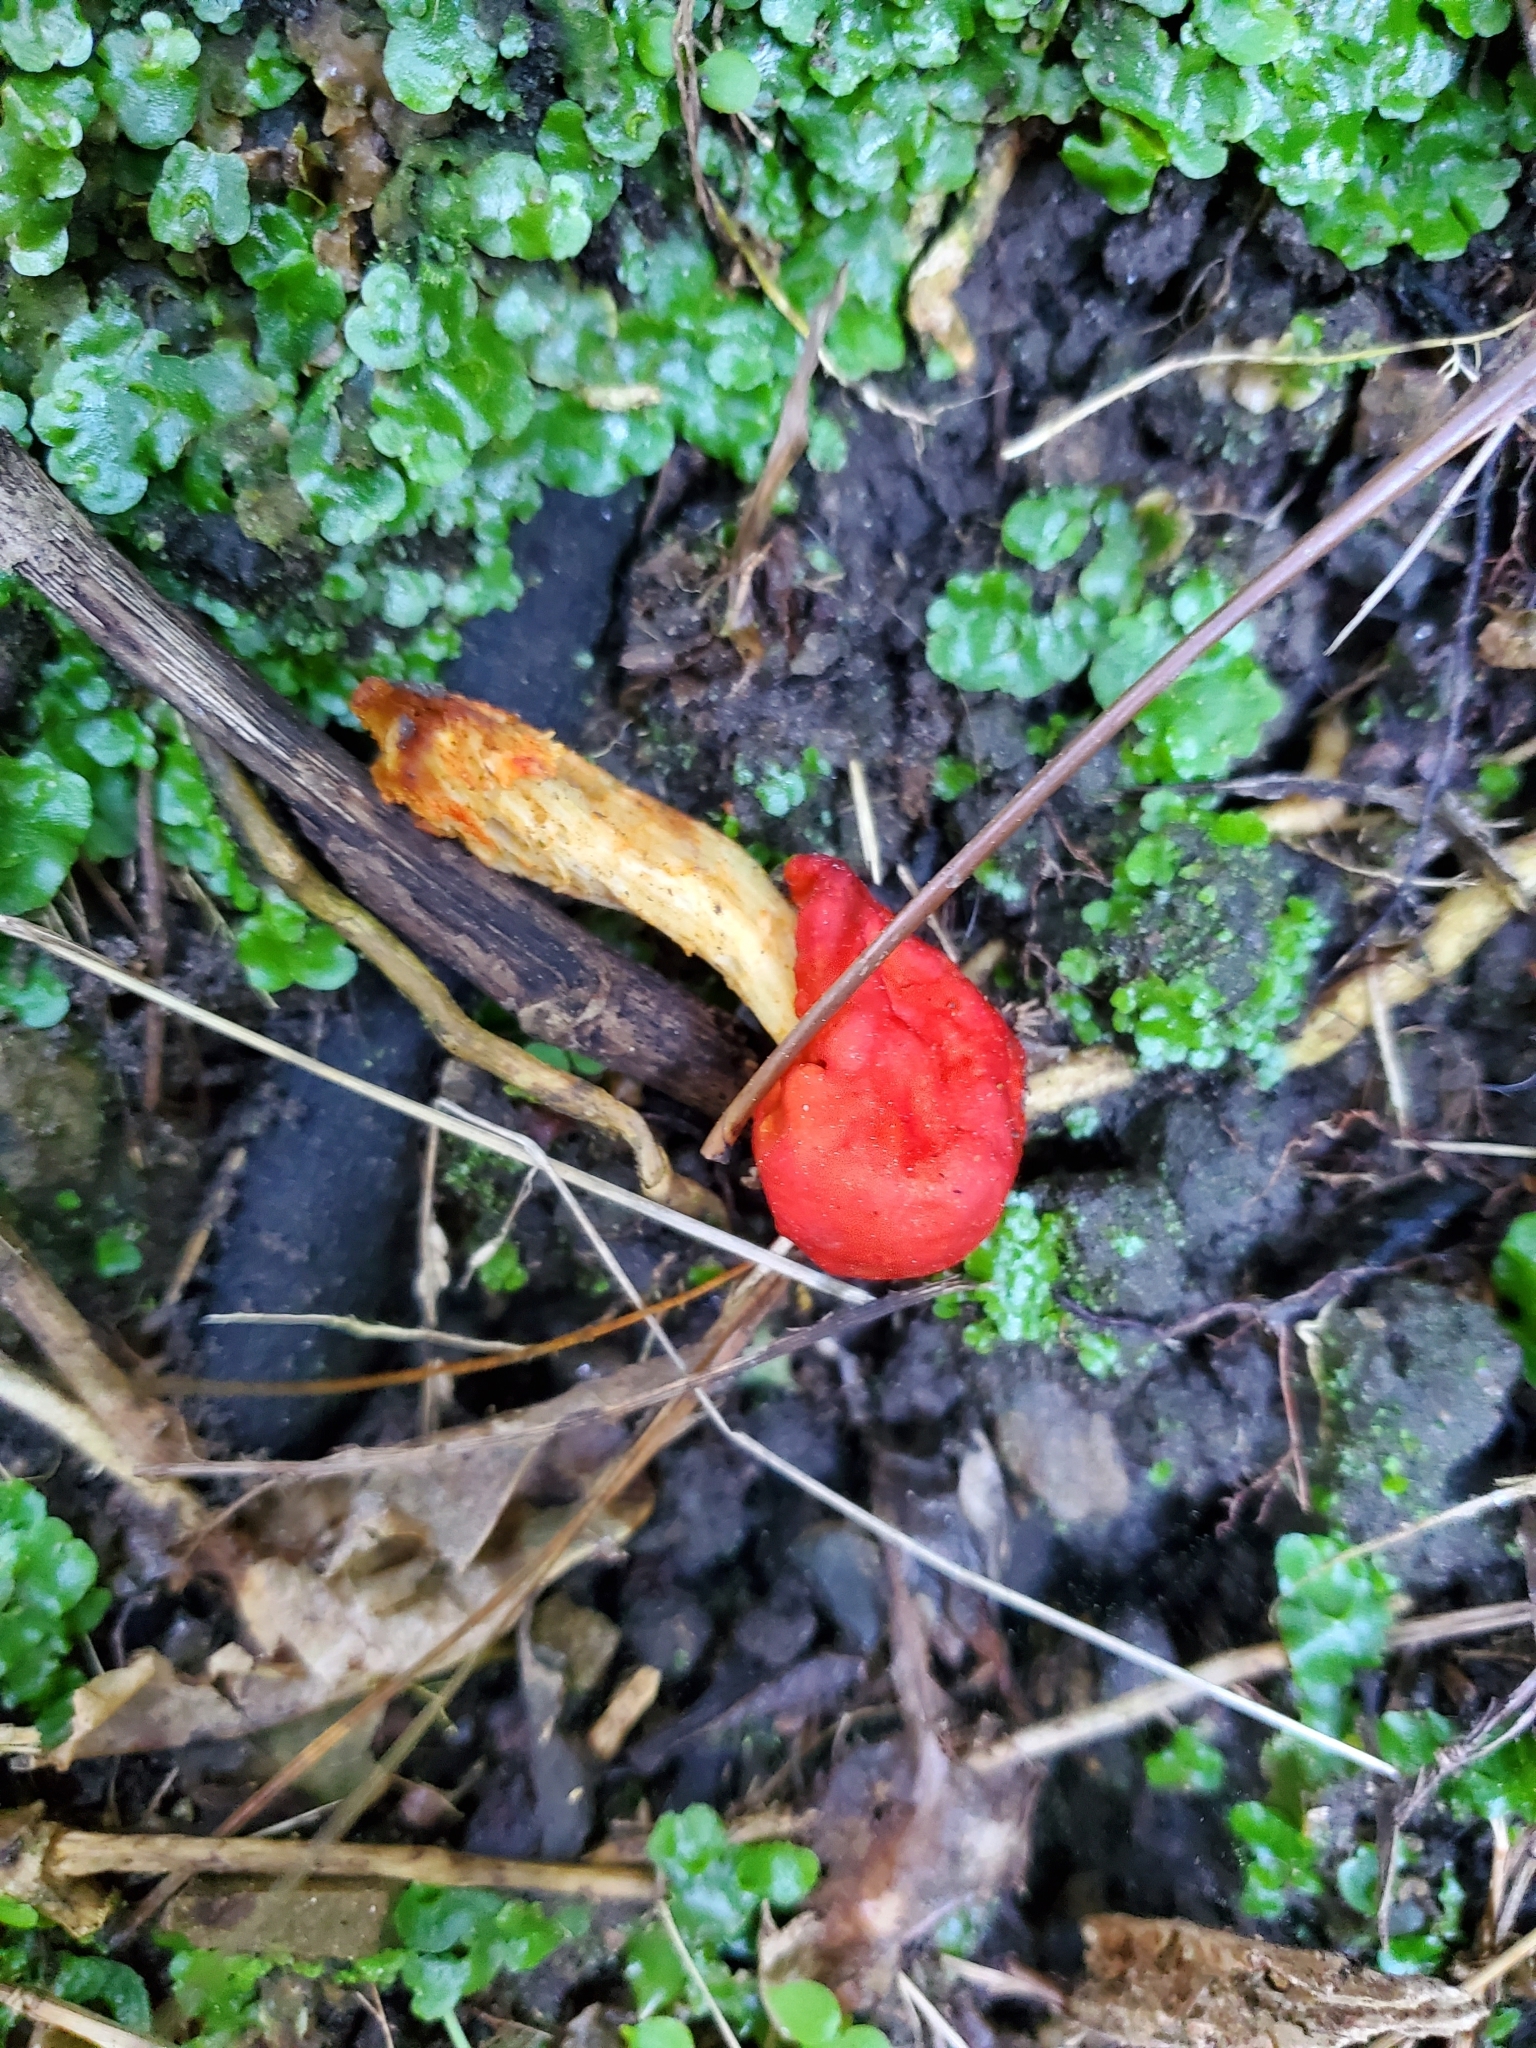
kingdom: Fungi
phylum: Basidiomycota
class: Agaricomycetes
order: Agaricales
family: Strophariaceae
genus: Leratiomyces
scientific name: Leratiomyces erythrocephalus
